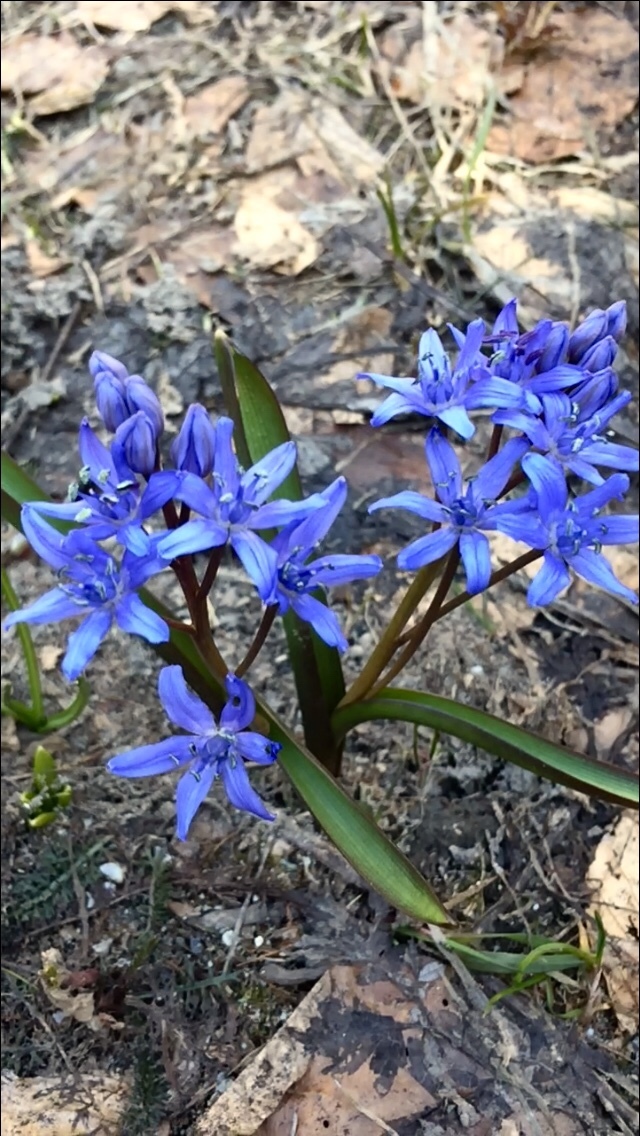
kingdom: Plantae
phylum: Tracheophyta
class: Liliopsida
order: Asparagales
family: Asparagaceae
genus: Scilla
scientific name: Scilla bifolia
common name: Alpine squill
